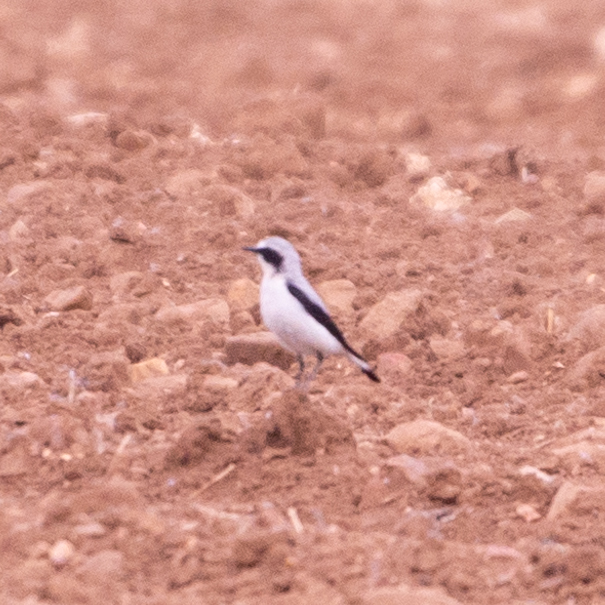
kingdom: Animalia
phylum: Chordata
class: Aves
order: Passeriformes
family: Muscicapidae
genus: Oenanthe
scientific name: Oenanthe oenanthe
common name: Northern wheatear
